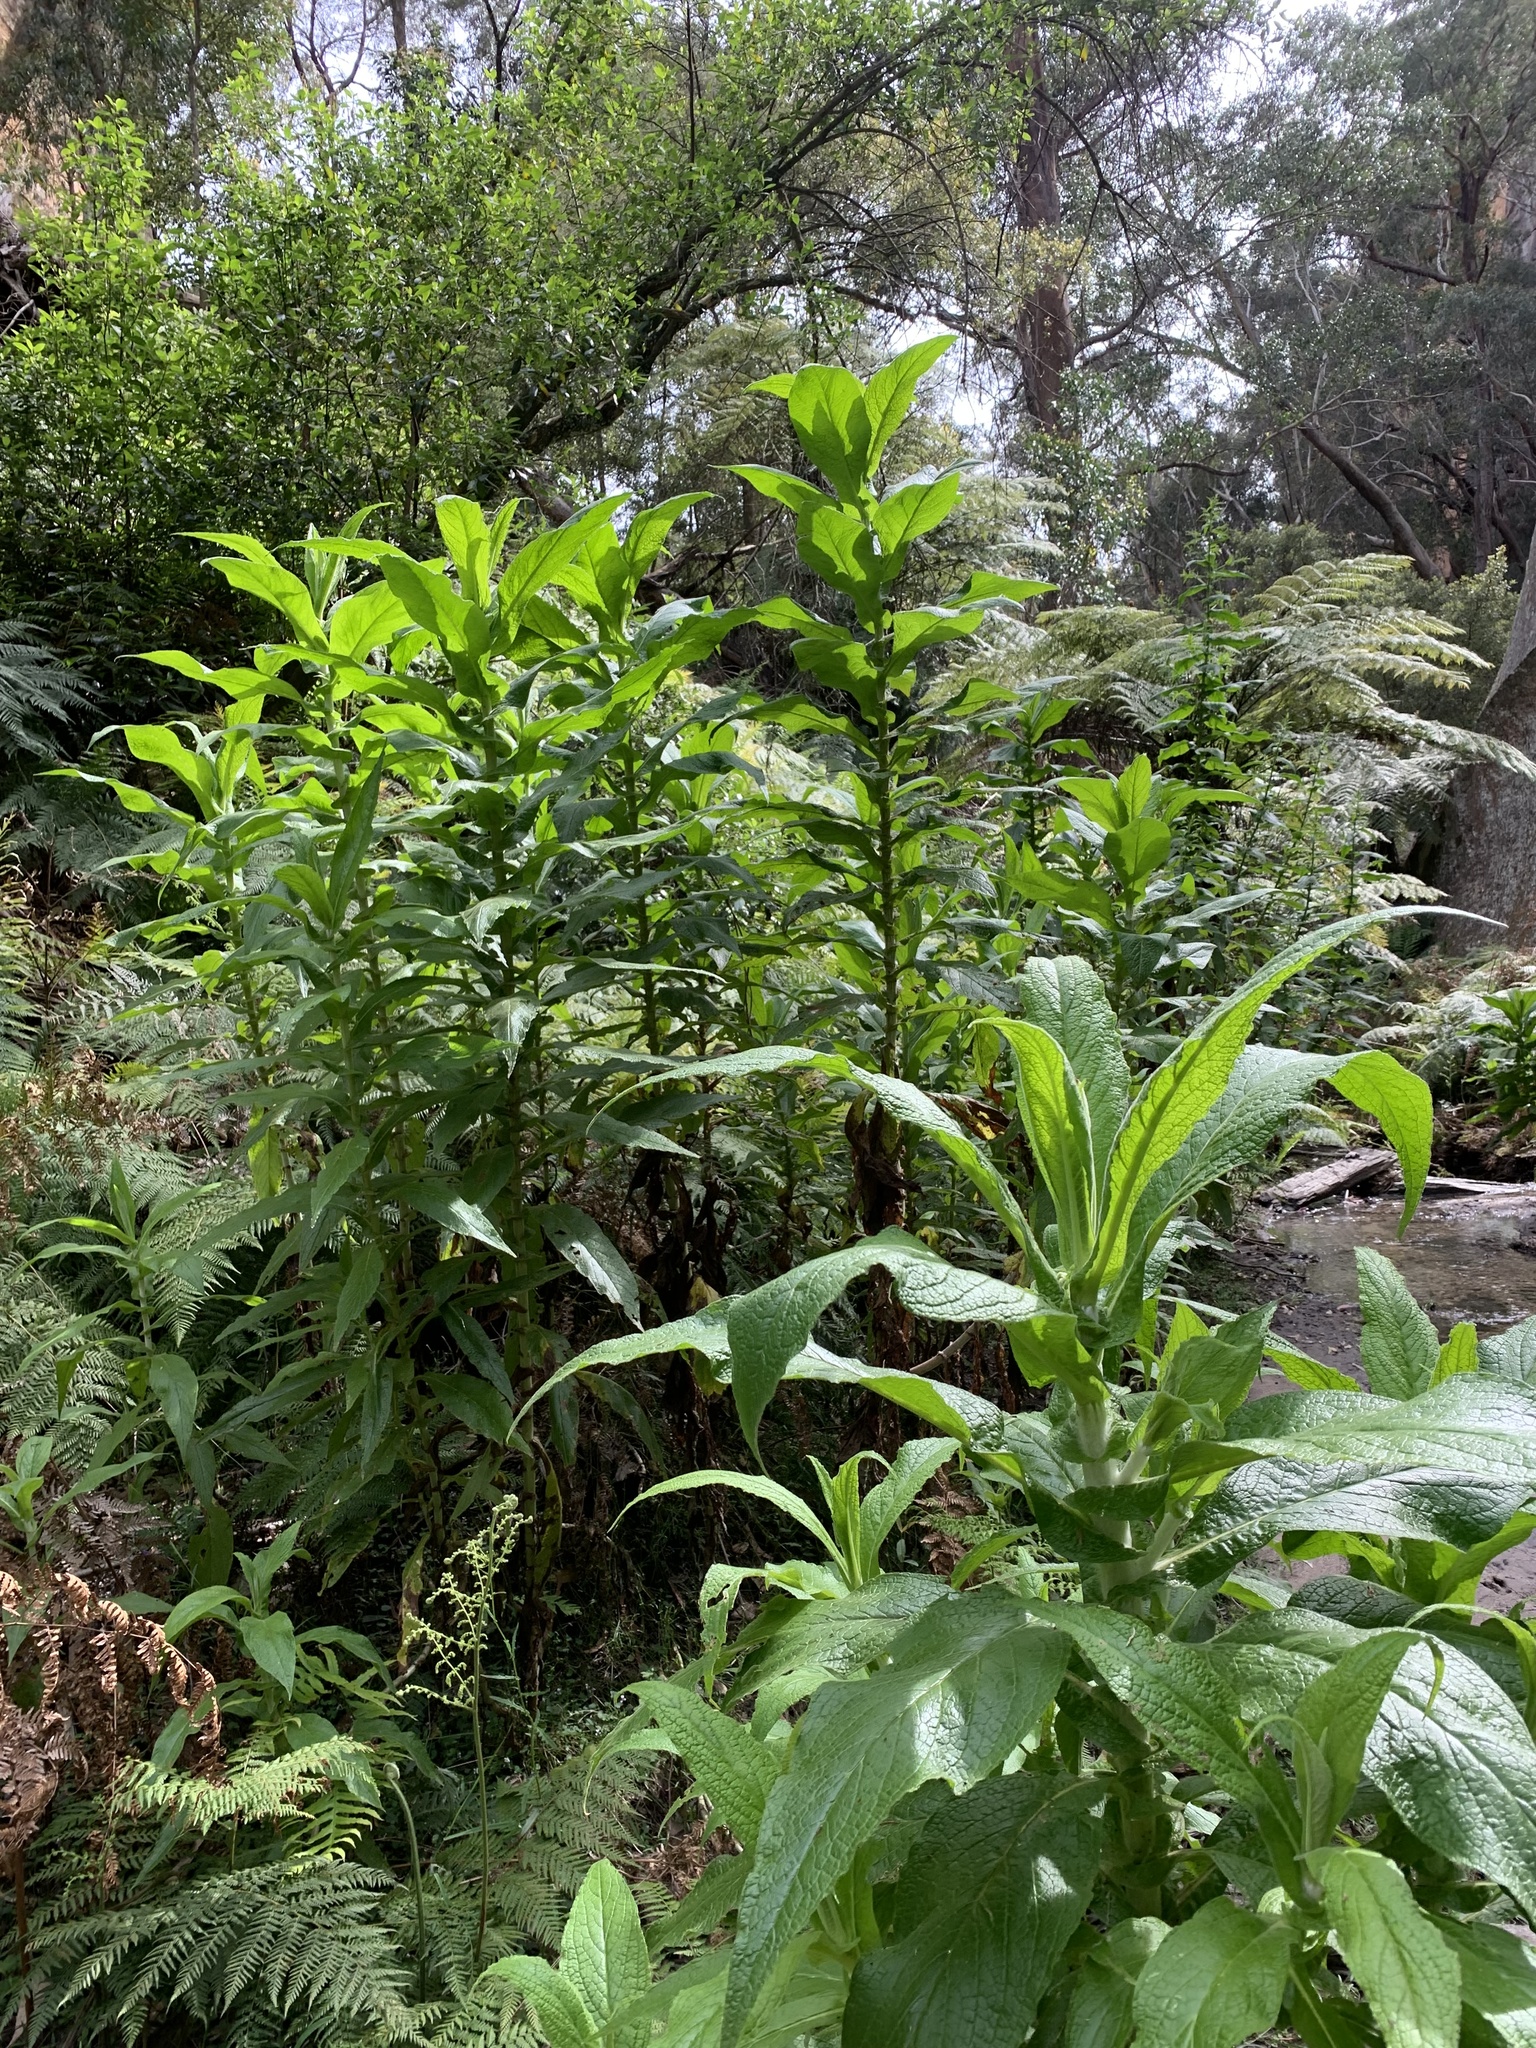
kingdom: Plantae
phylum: Tracheophyta
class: Magnoliopsida
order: Asterales
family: Asteraceae
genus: Calomeria
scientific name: Calomeria amaranthoides
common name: Incenseplant
